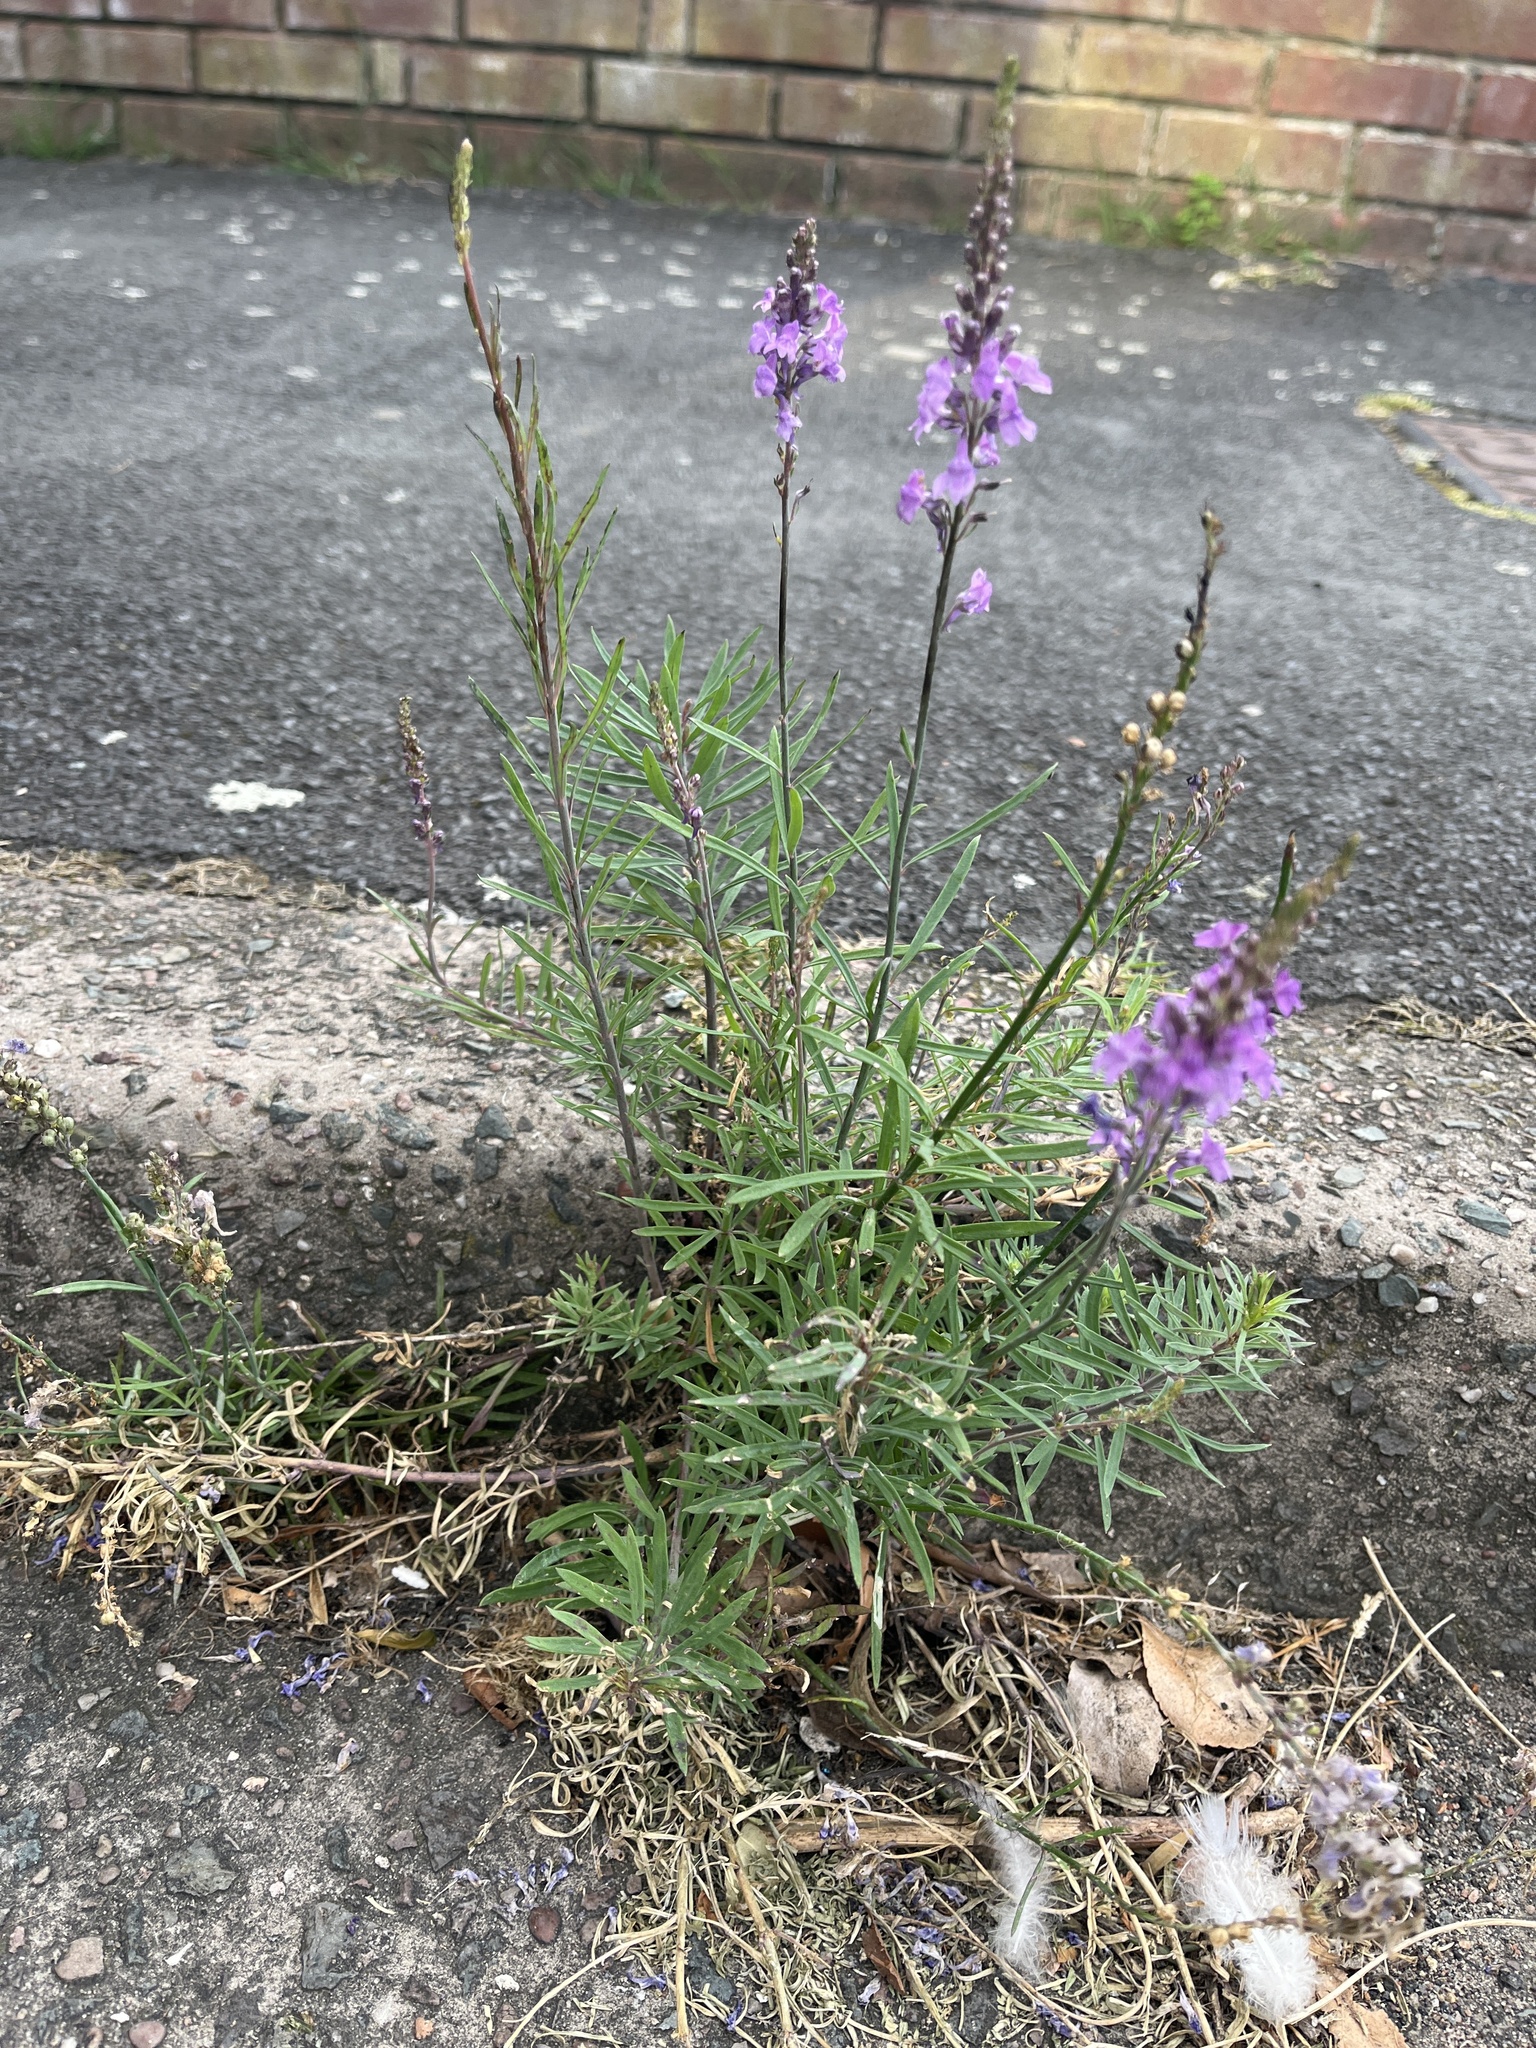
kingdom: Plantae
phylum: Tracheophyta
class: Magnoliopsida
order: Lamiales
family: Plantaginaceae
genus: Linaria
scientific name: Linaria purpurea
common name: Purple toadflax
